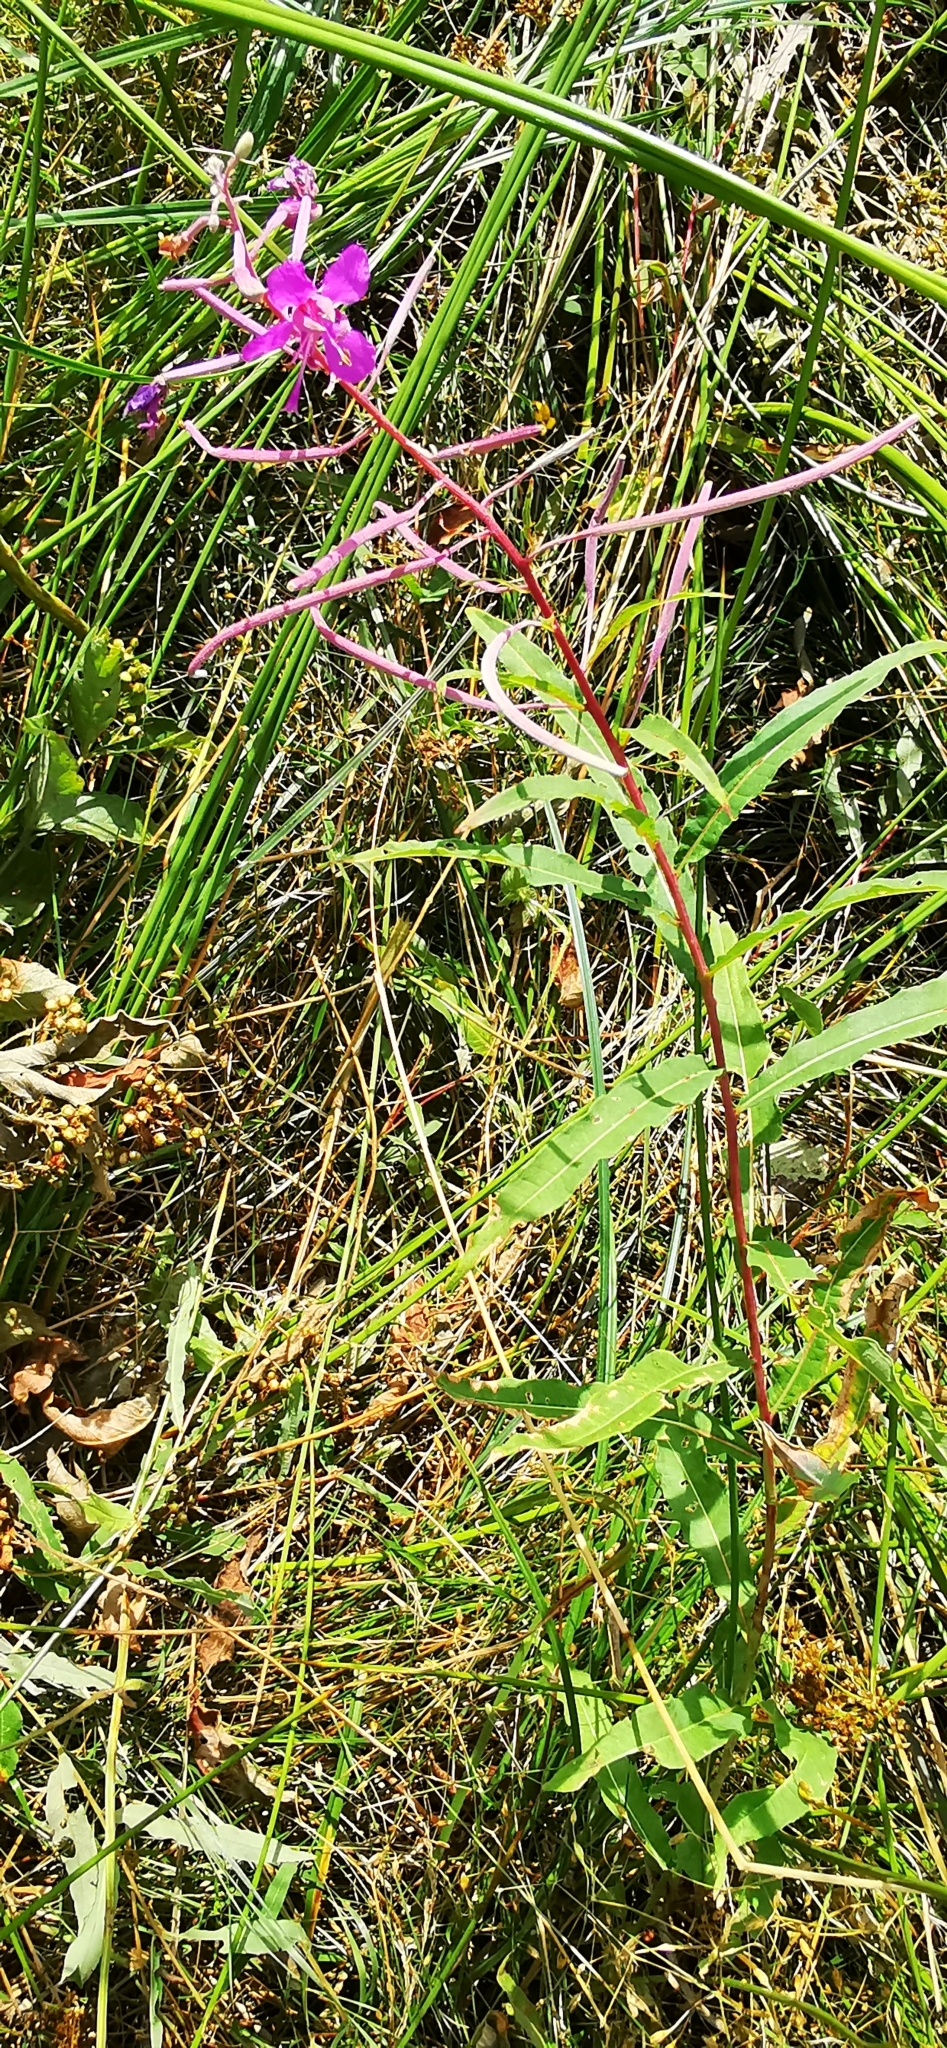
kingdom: Plantae
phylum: Tracheophyta
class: Magnoliopsida
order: Myrtales
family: Onagraceae
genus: Chamaenerion
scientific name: Chamaenerion angustifolium
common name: Fireweed
